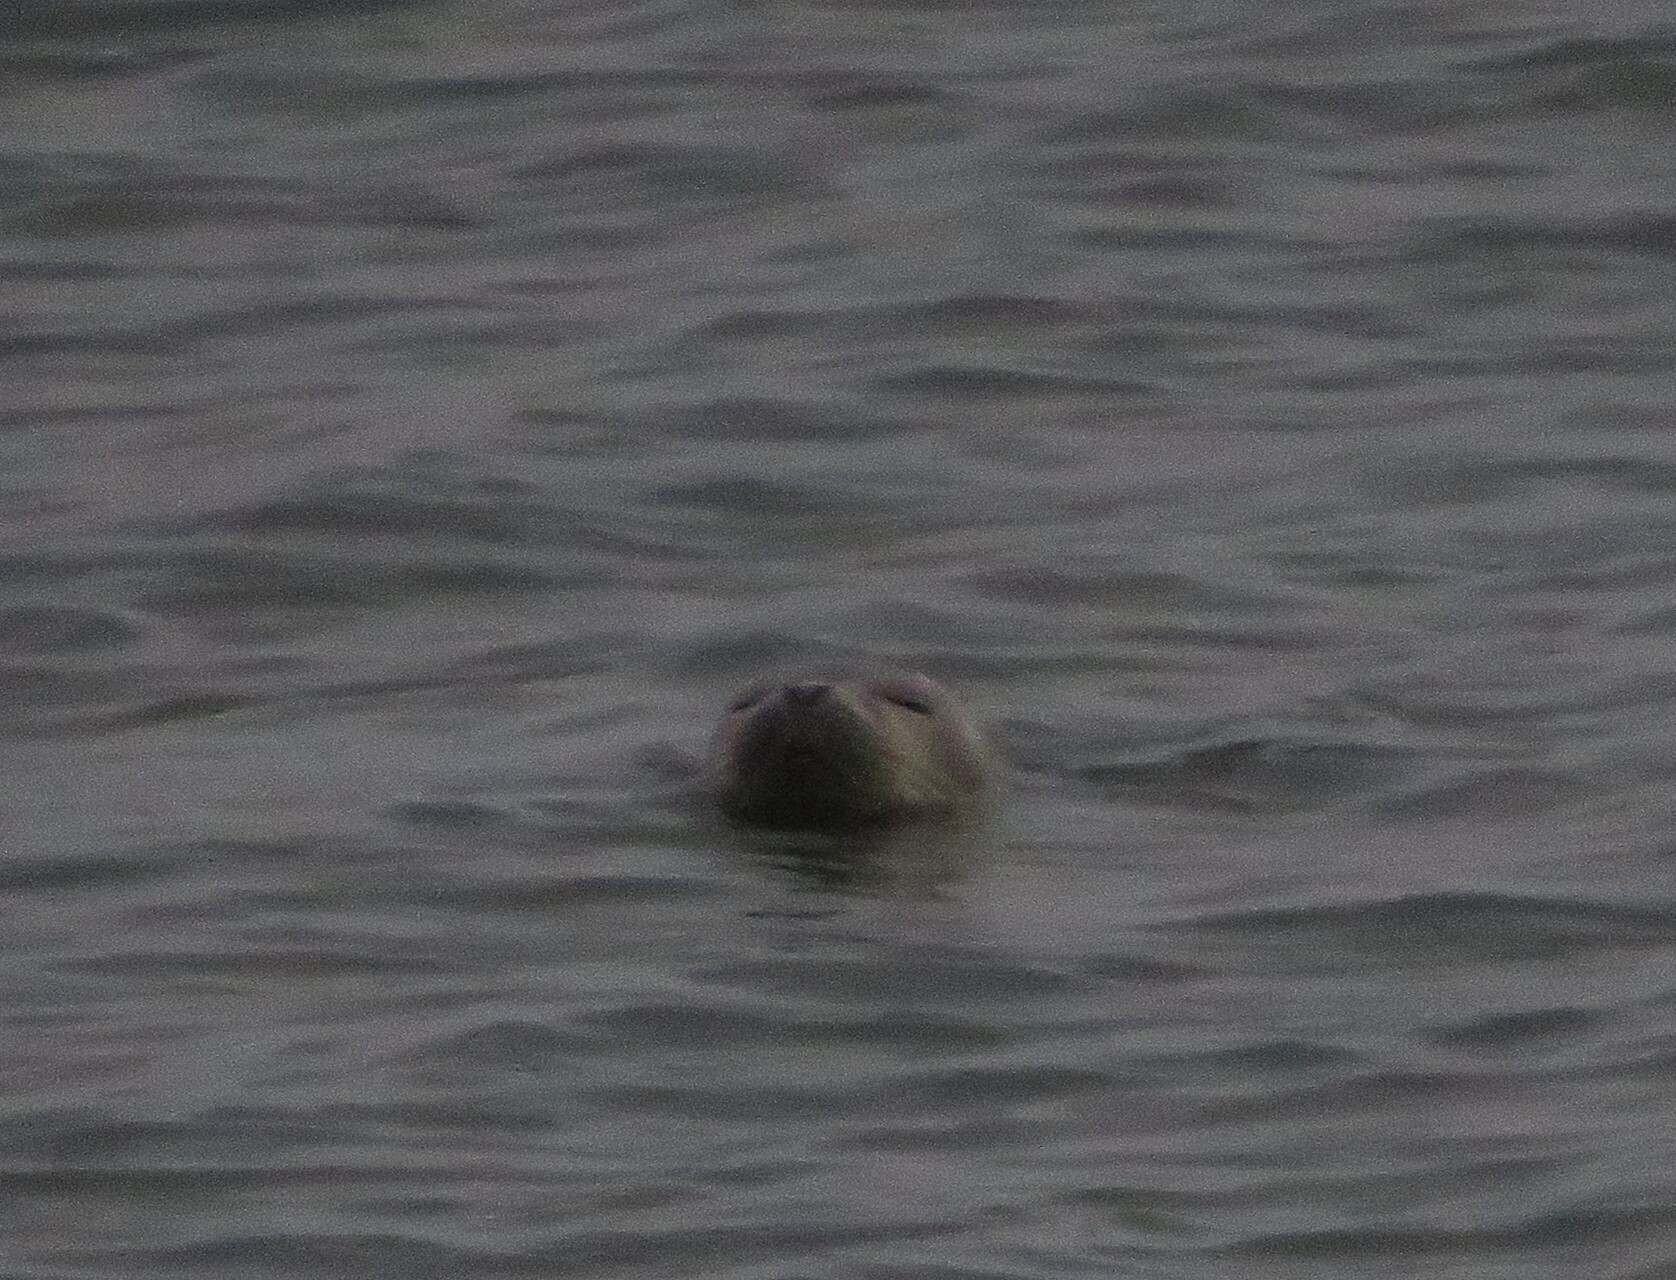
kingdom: Animalia
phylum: Chordata
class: Mammalia
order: Carnivora
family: Phocidae
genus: Phoca
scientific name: Phoca vitulina
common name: Harbor seal
